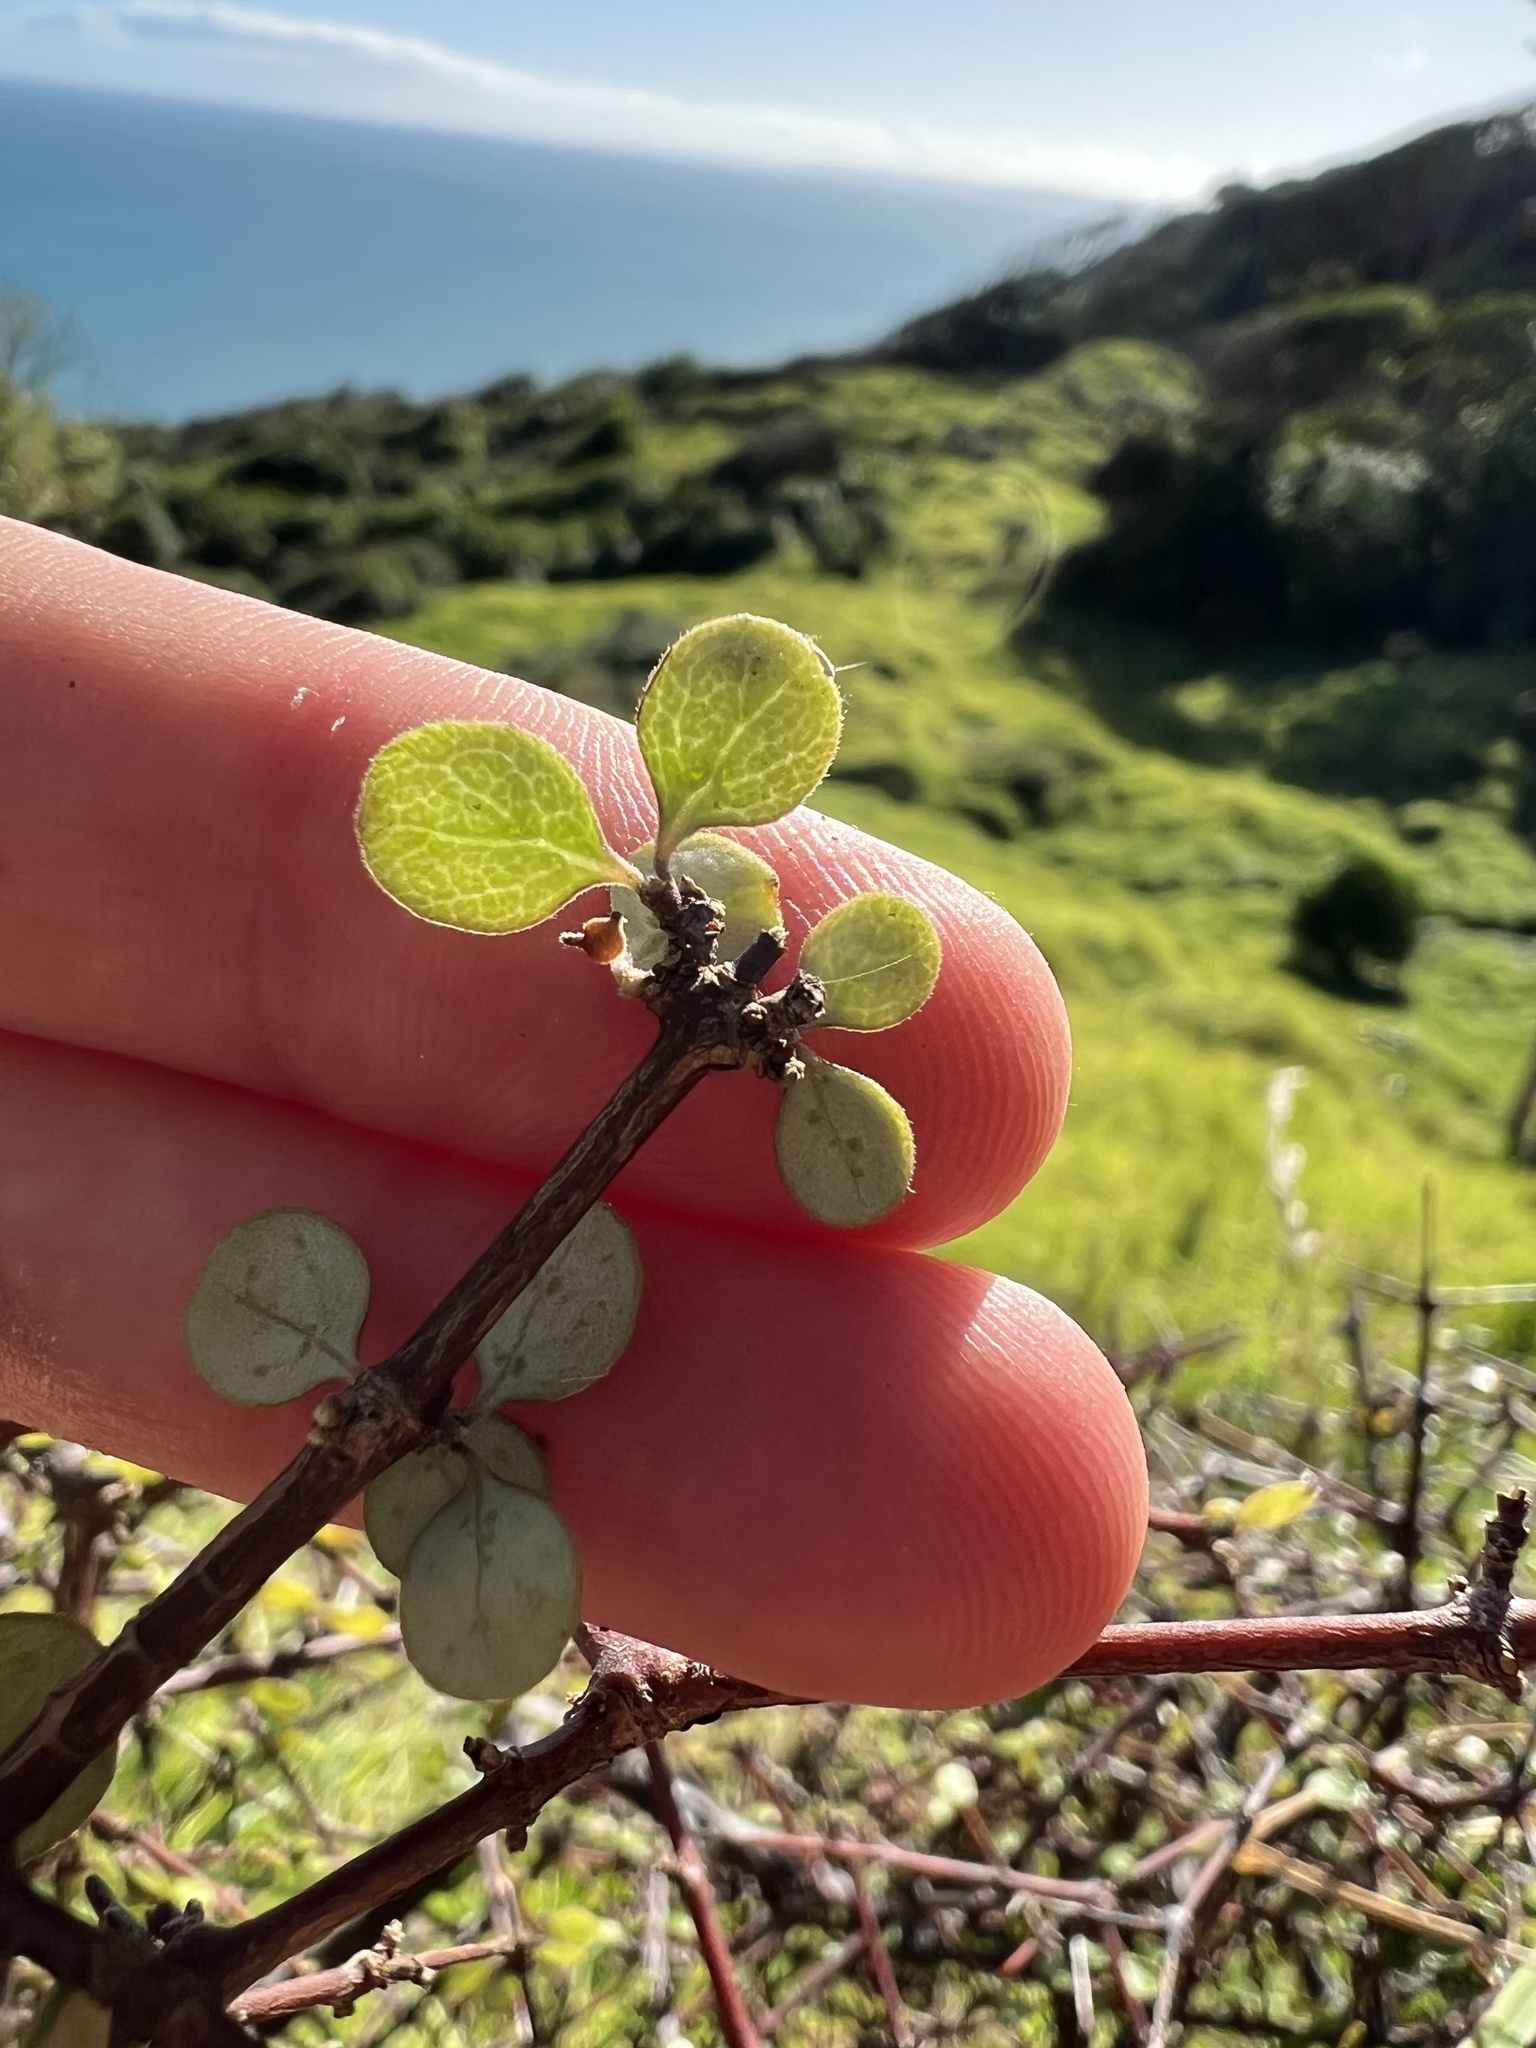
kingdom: Plantae
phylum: Tracheophyta
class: Magnoliopsida
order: Gentianales
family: Rubiaceae
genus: Coprosma
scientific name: Coprosma crassifolia
